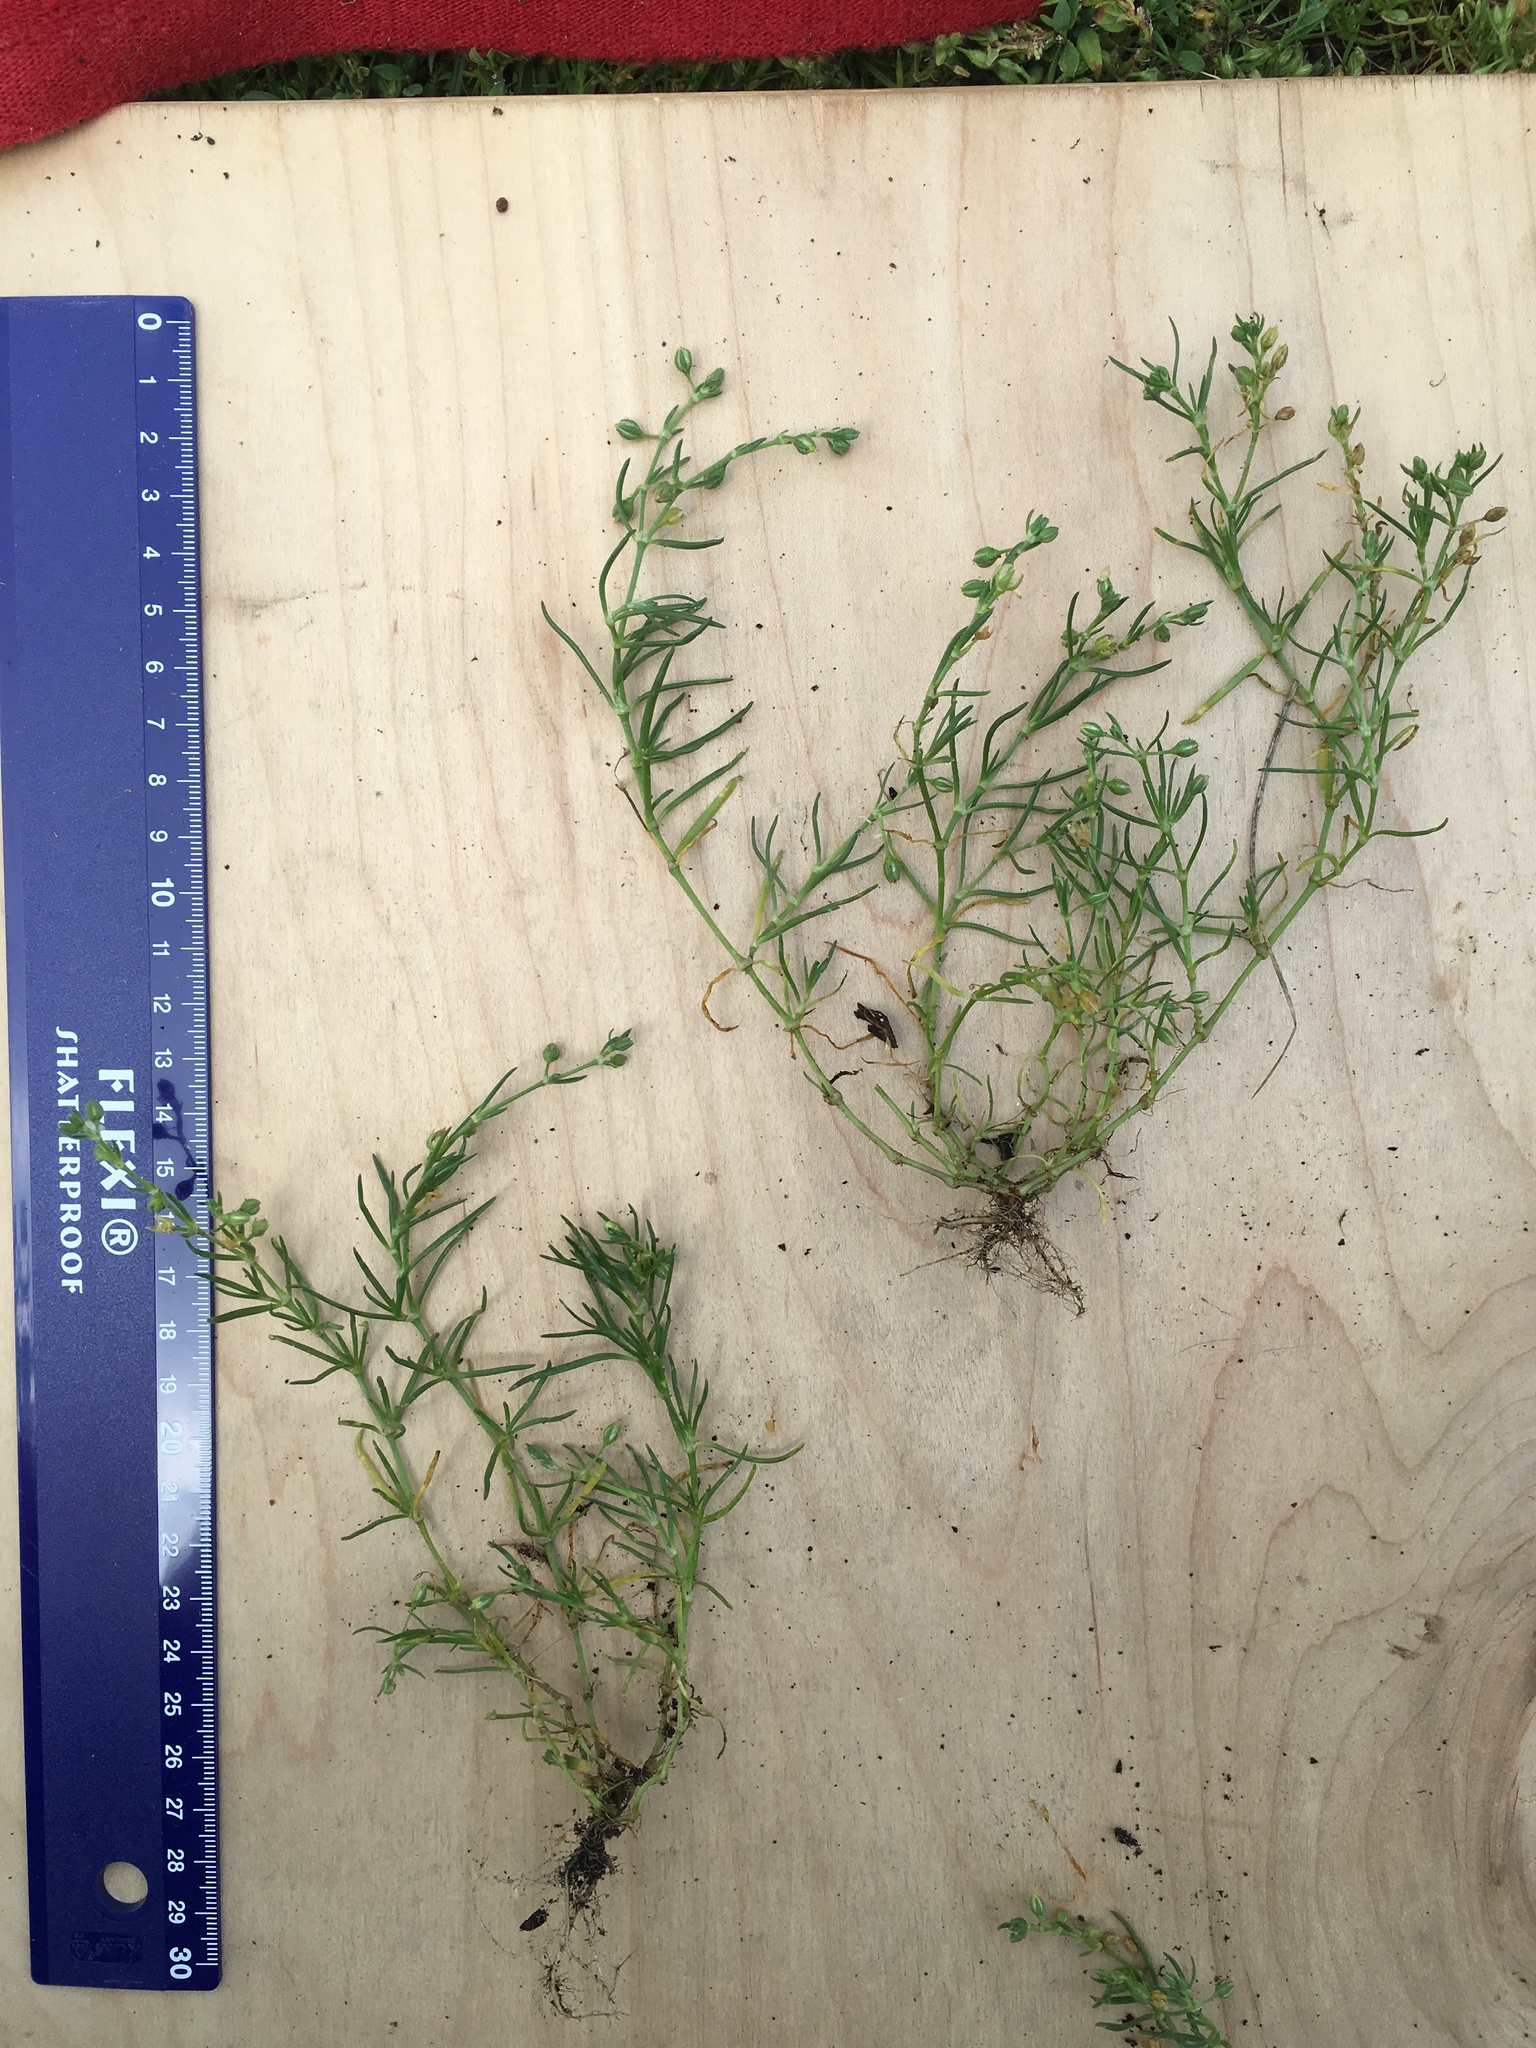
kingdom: Plantae
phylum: Tracheophyta
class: Magnoliopsida
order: Caryophyllales
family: Caryophyllaceae
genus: Spergularia
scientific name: Spergularia marina
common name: Lesser sea-spurrey
